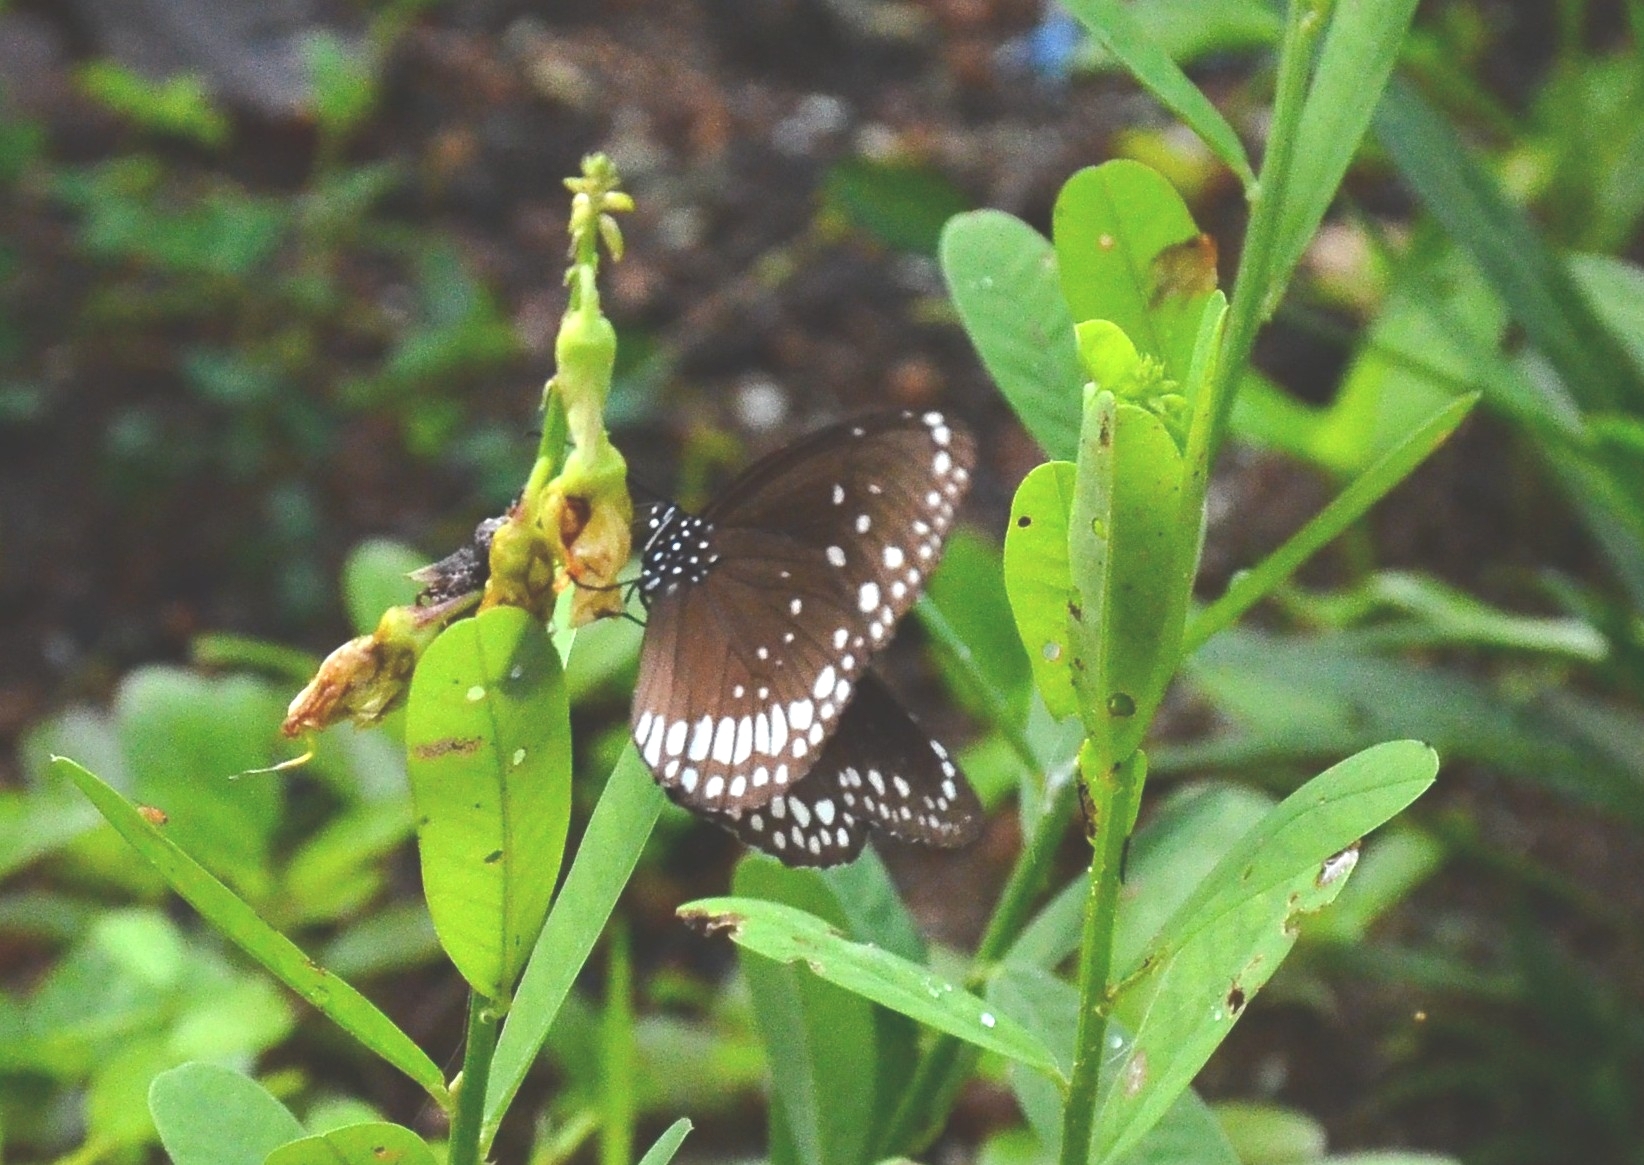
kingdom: Animalia
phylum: Arthropoda
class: Insecta
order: Lepidoptera
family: Nymphalidae
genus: Euploea
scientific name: Euploea core
